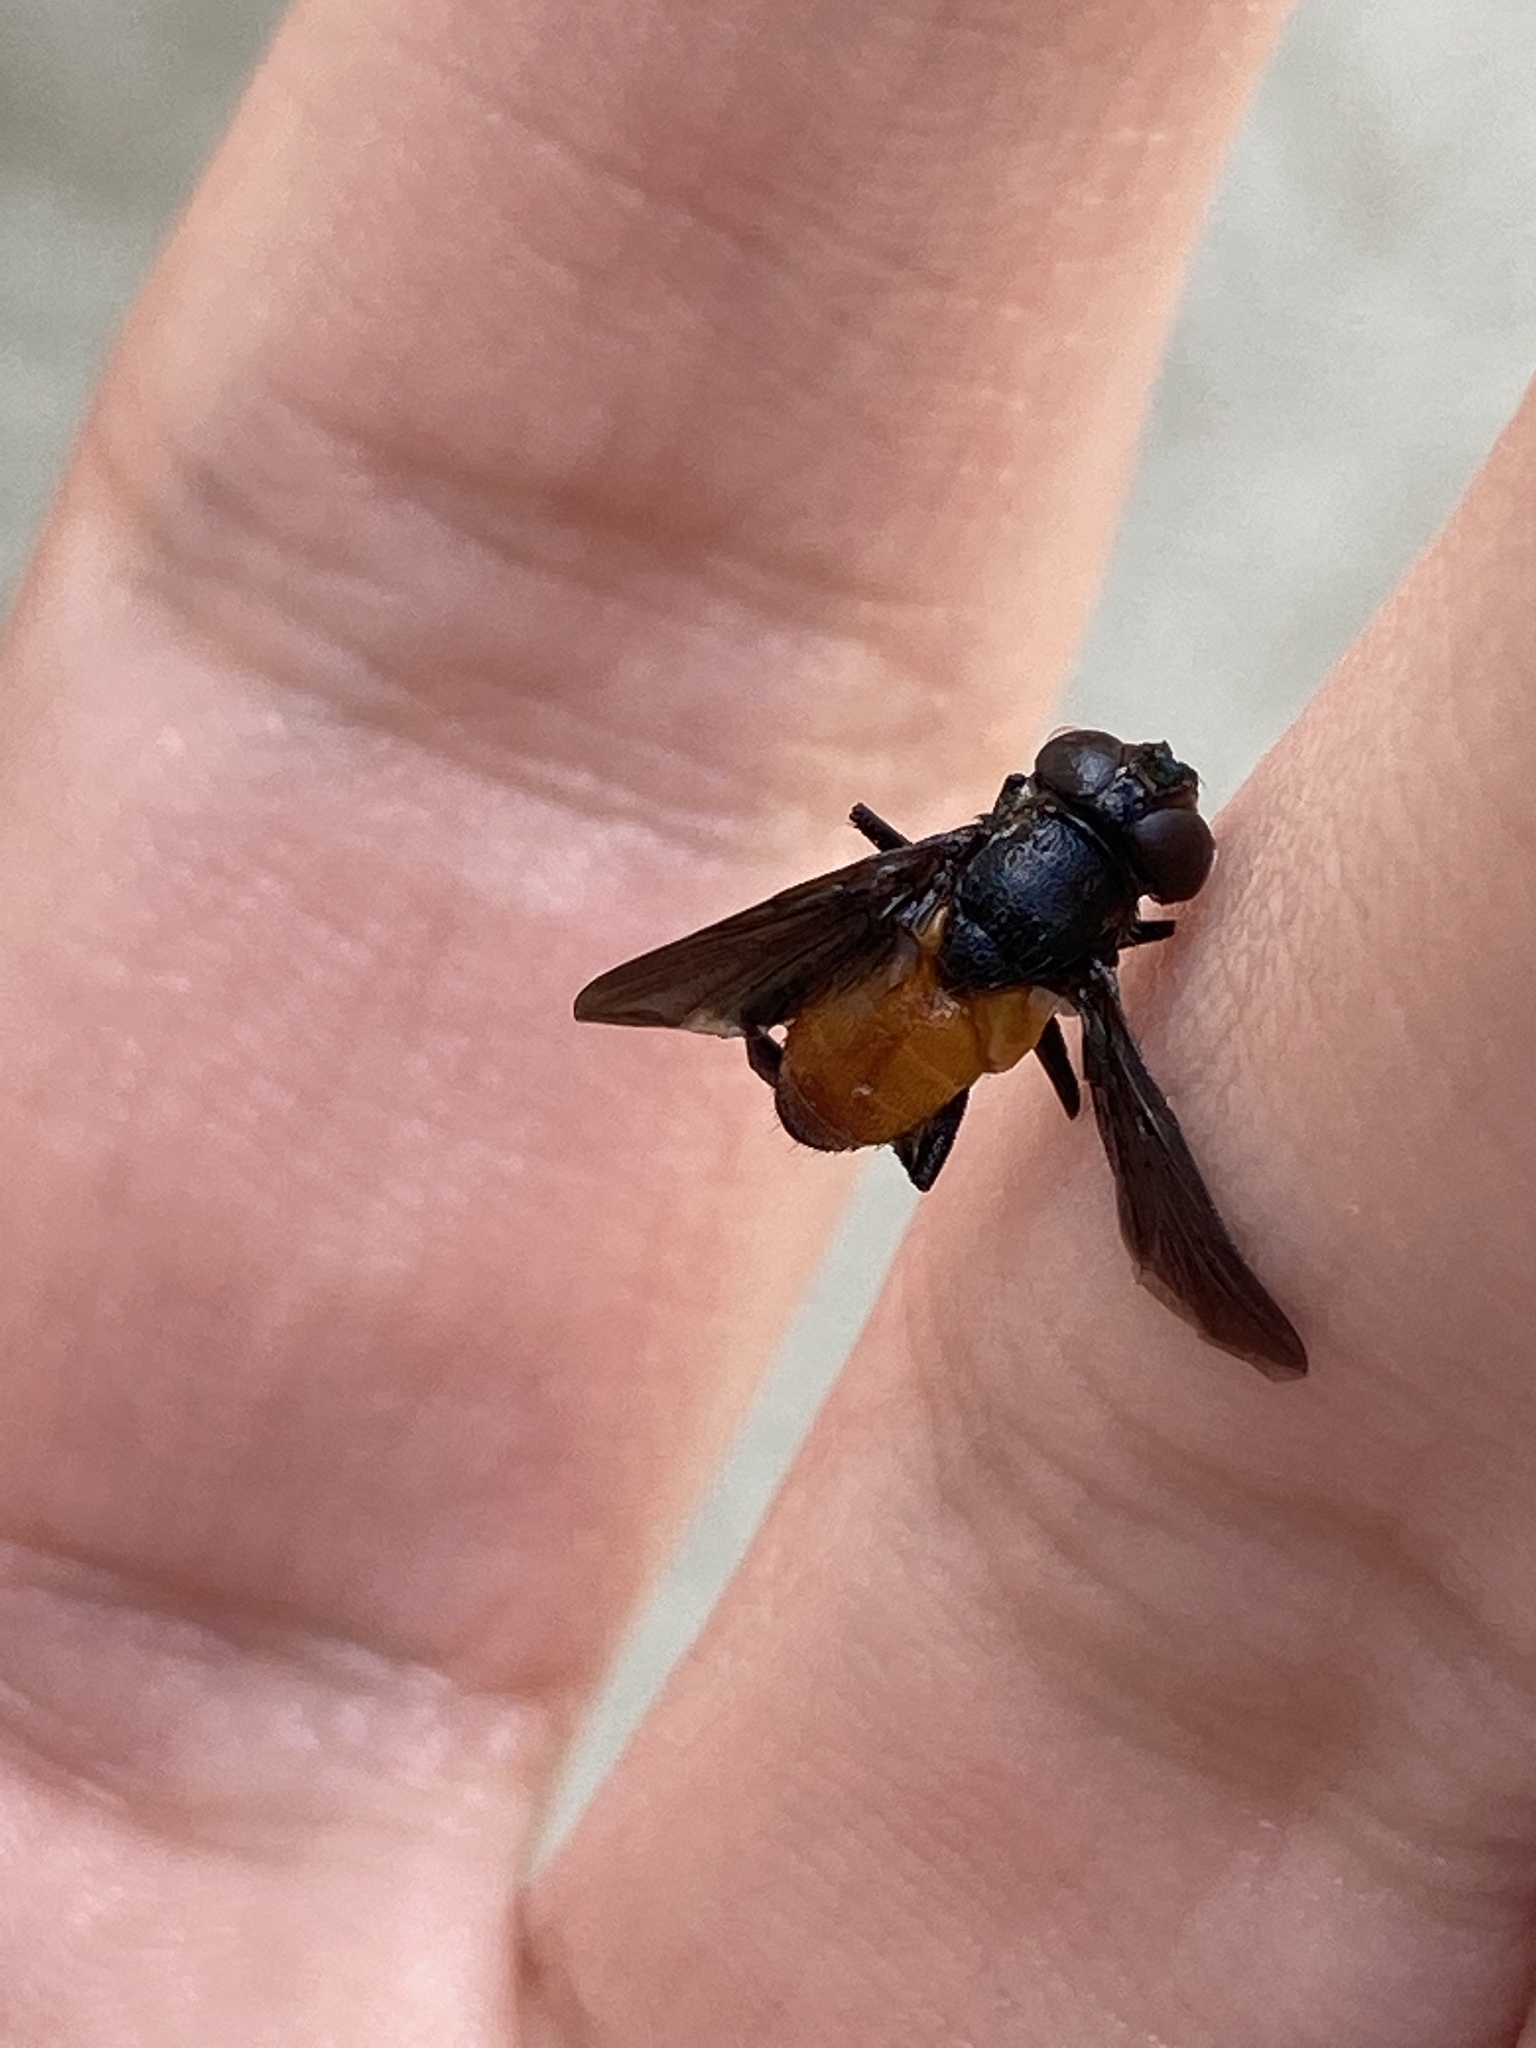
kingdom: Animalia
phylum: Arthropoda
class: Insecta
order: Diptera
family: Tachinidae
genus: Trichopoda
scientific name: Trichopoda pennipes
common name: Tachinid fly
